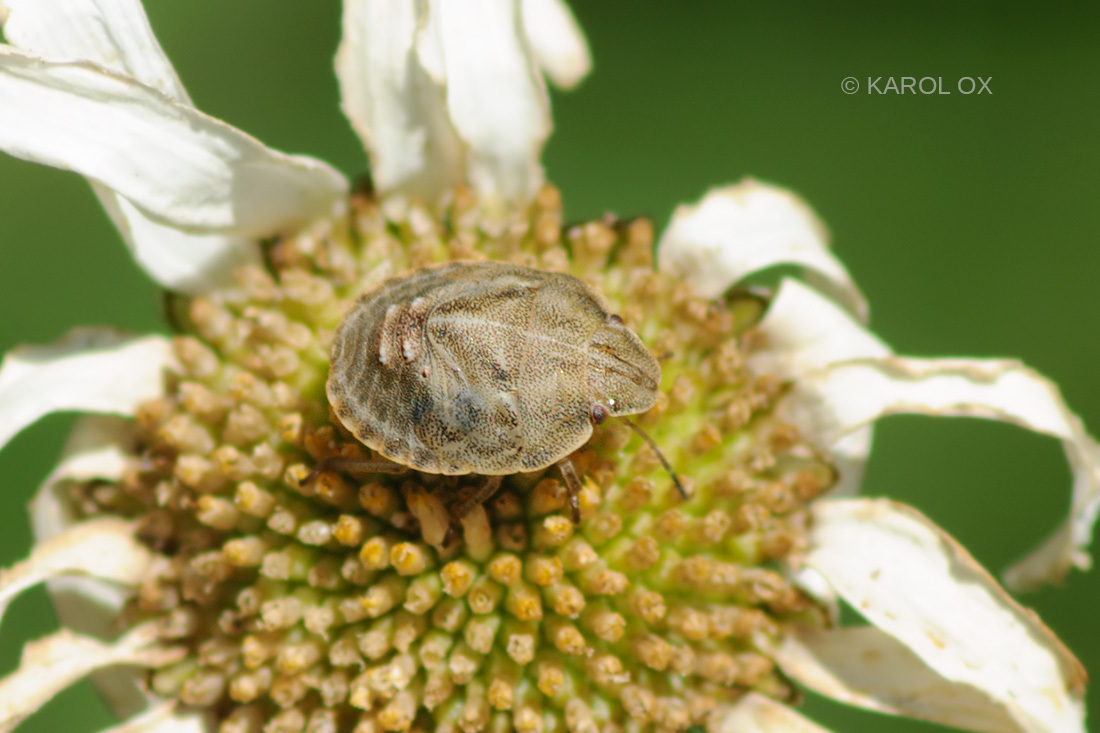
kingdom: Animalia
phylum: Arthropoda
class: Insecta
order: Hemiptera
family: Scutelleridae
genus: Eurygaster
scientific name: Eurygaster testudinaria
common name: Tortoise bug
